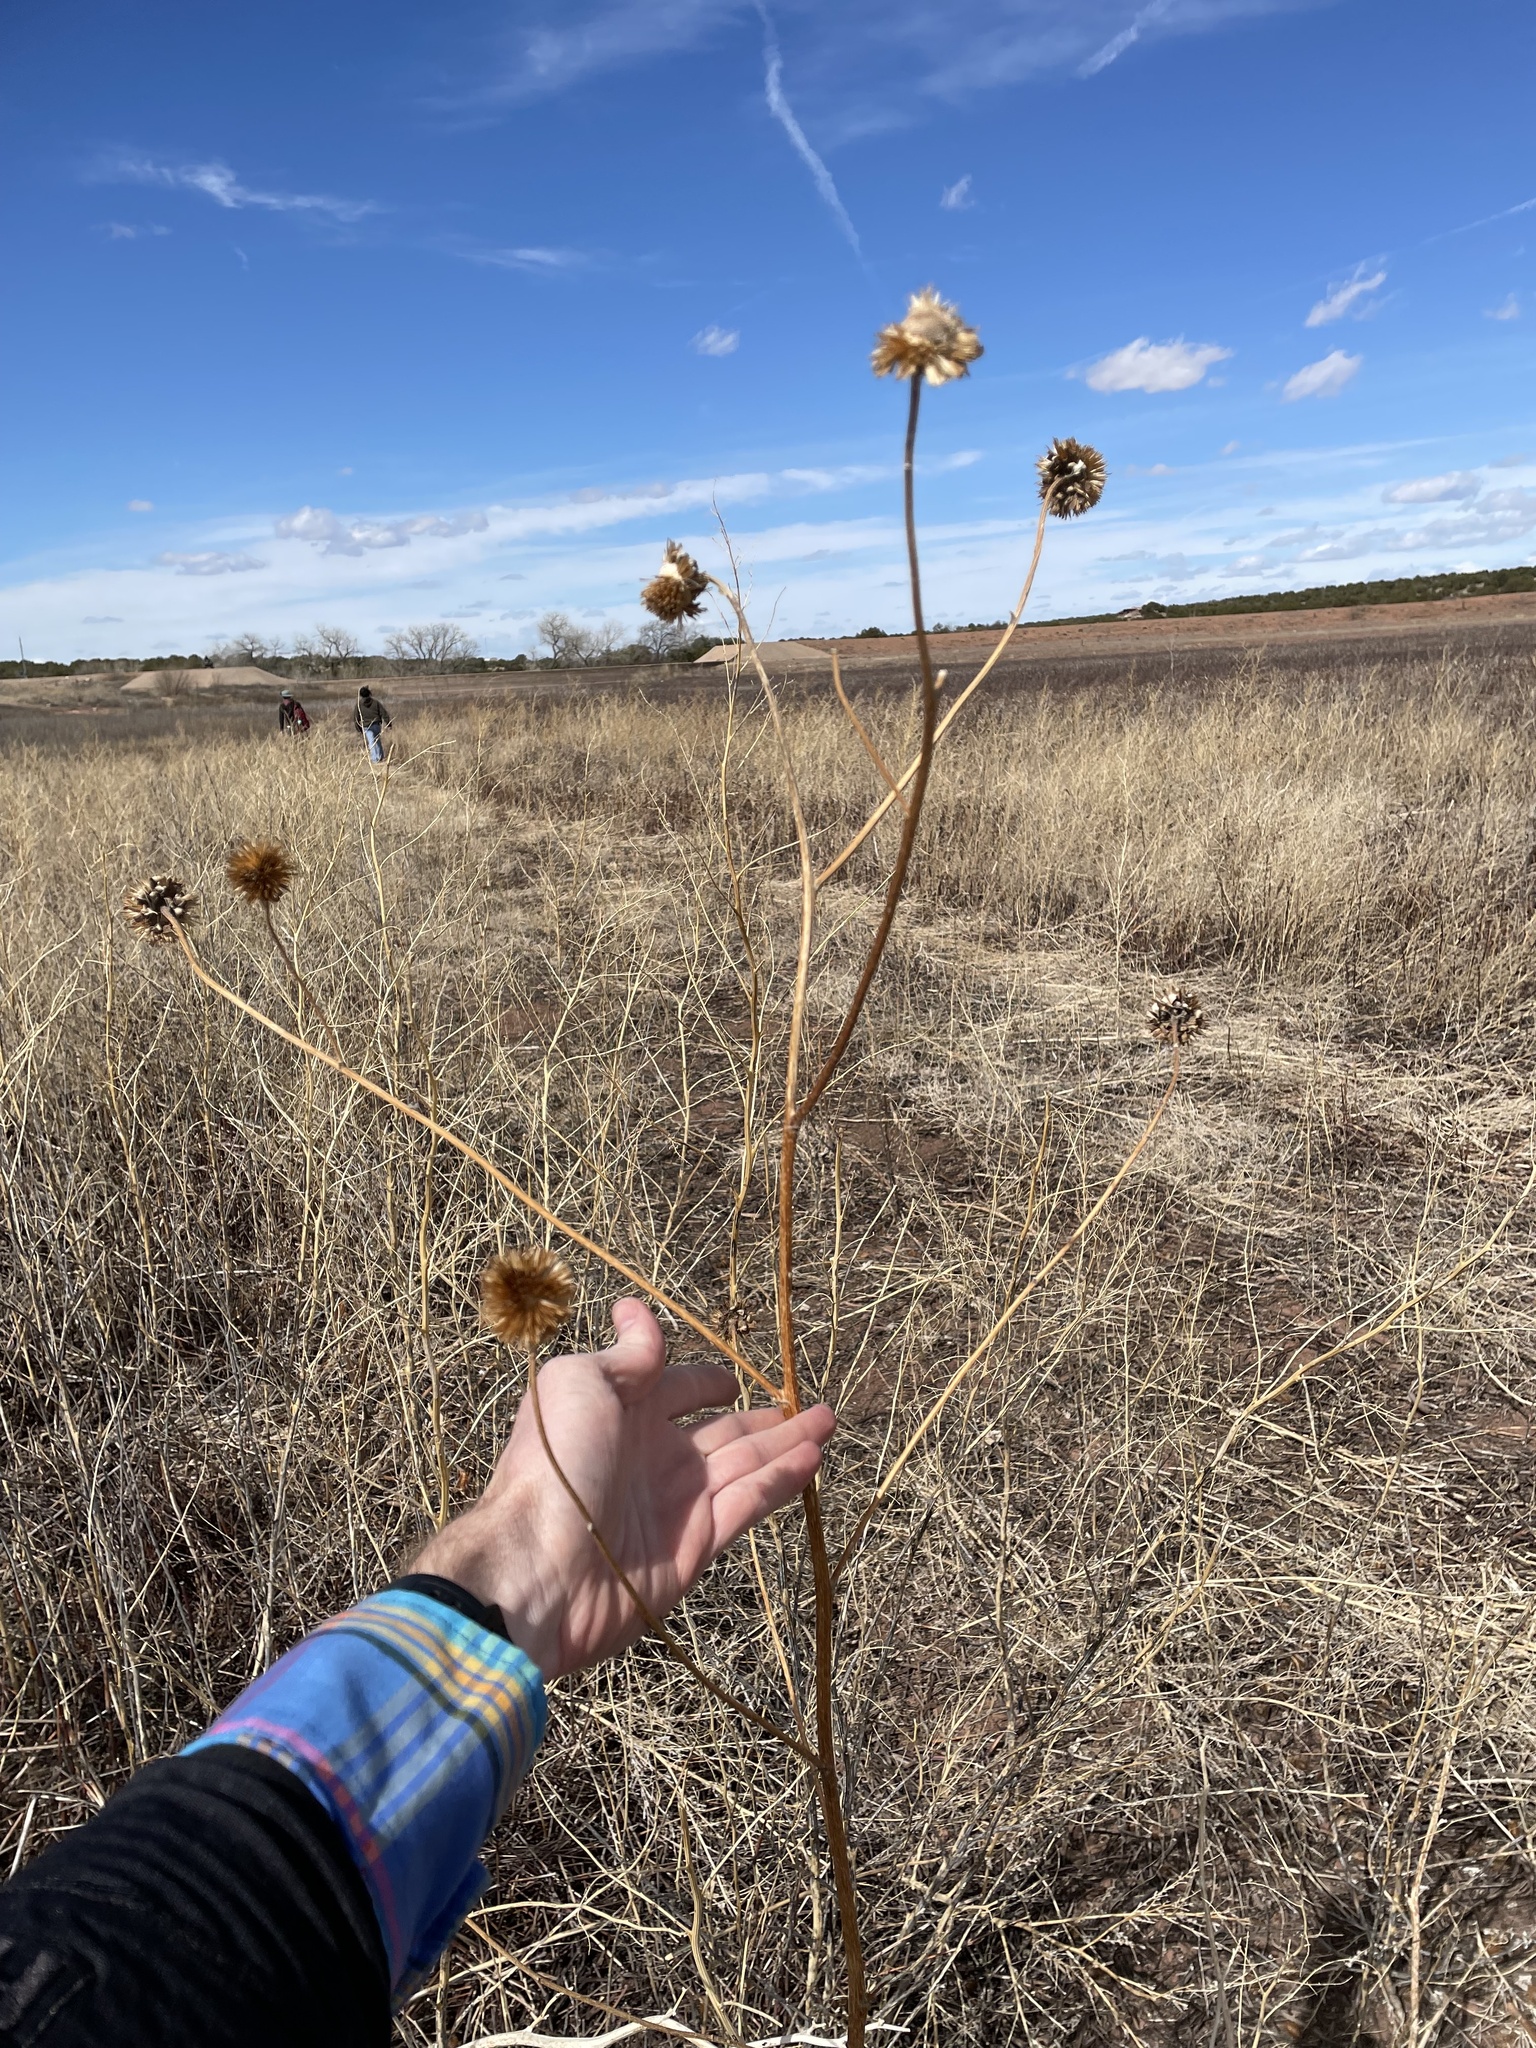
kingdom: Plantae
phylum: Tracheophyta
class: Magnoliopsida
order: Asterales
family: Asteraceae
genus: Helianthus
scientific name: Helianthus annuus
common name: Sunflower
